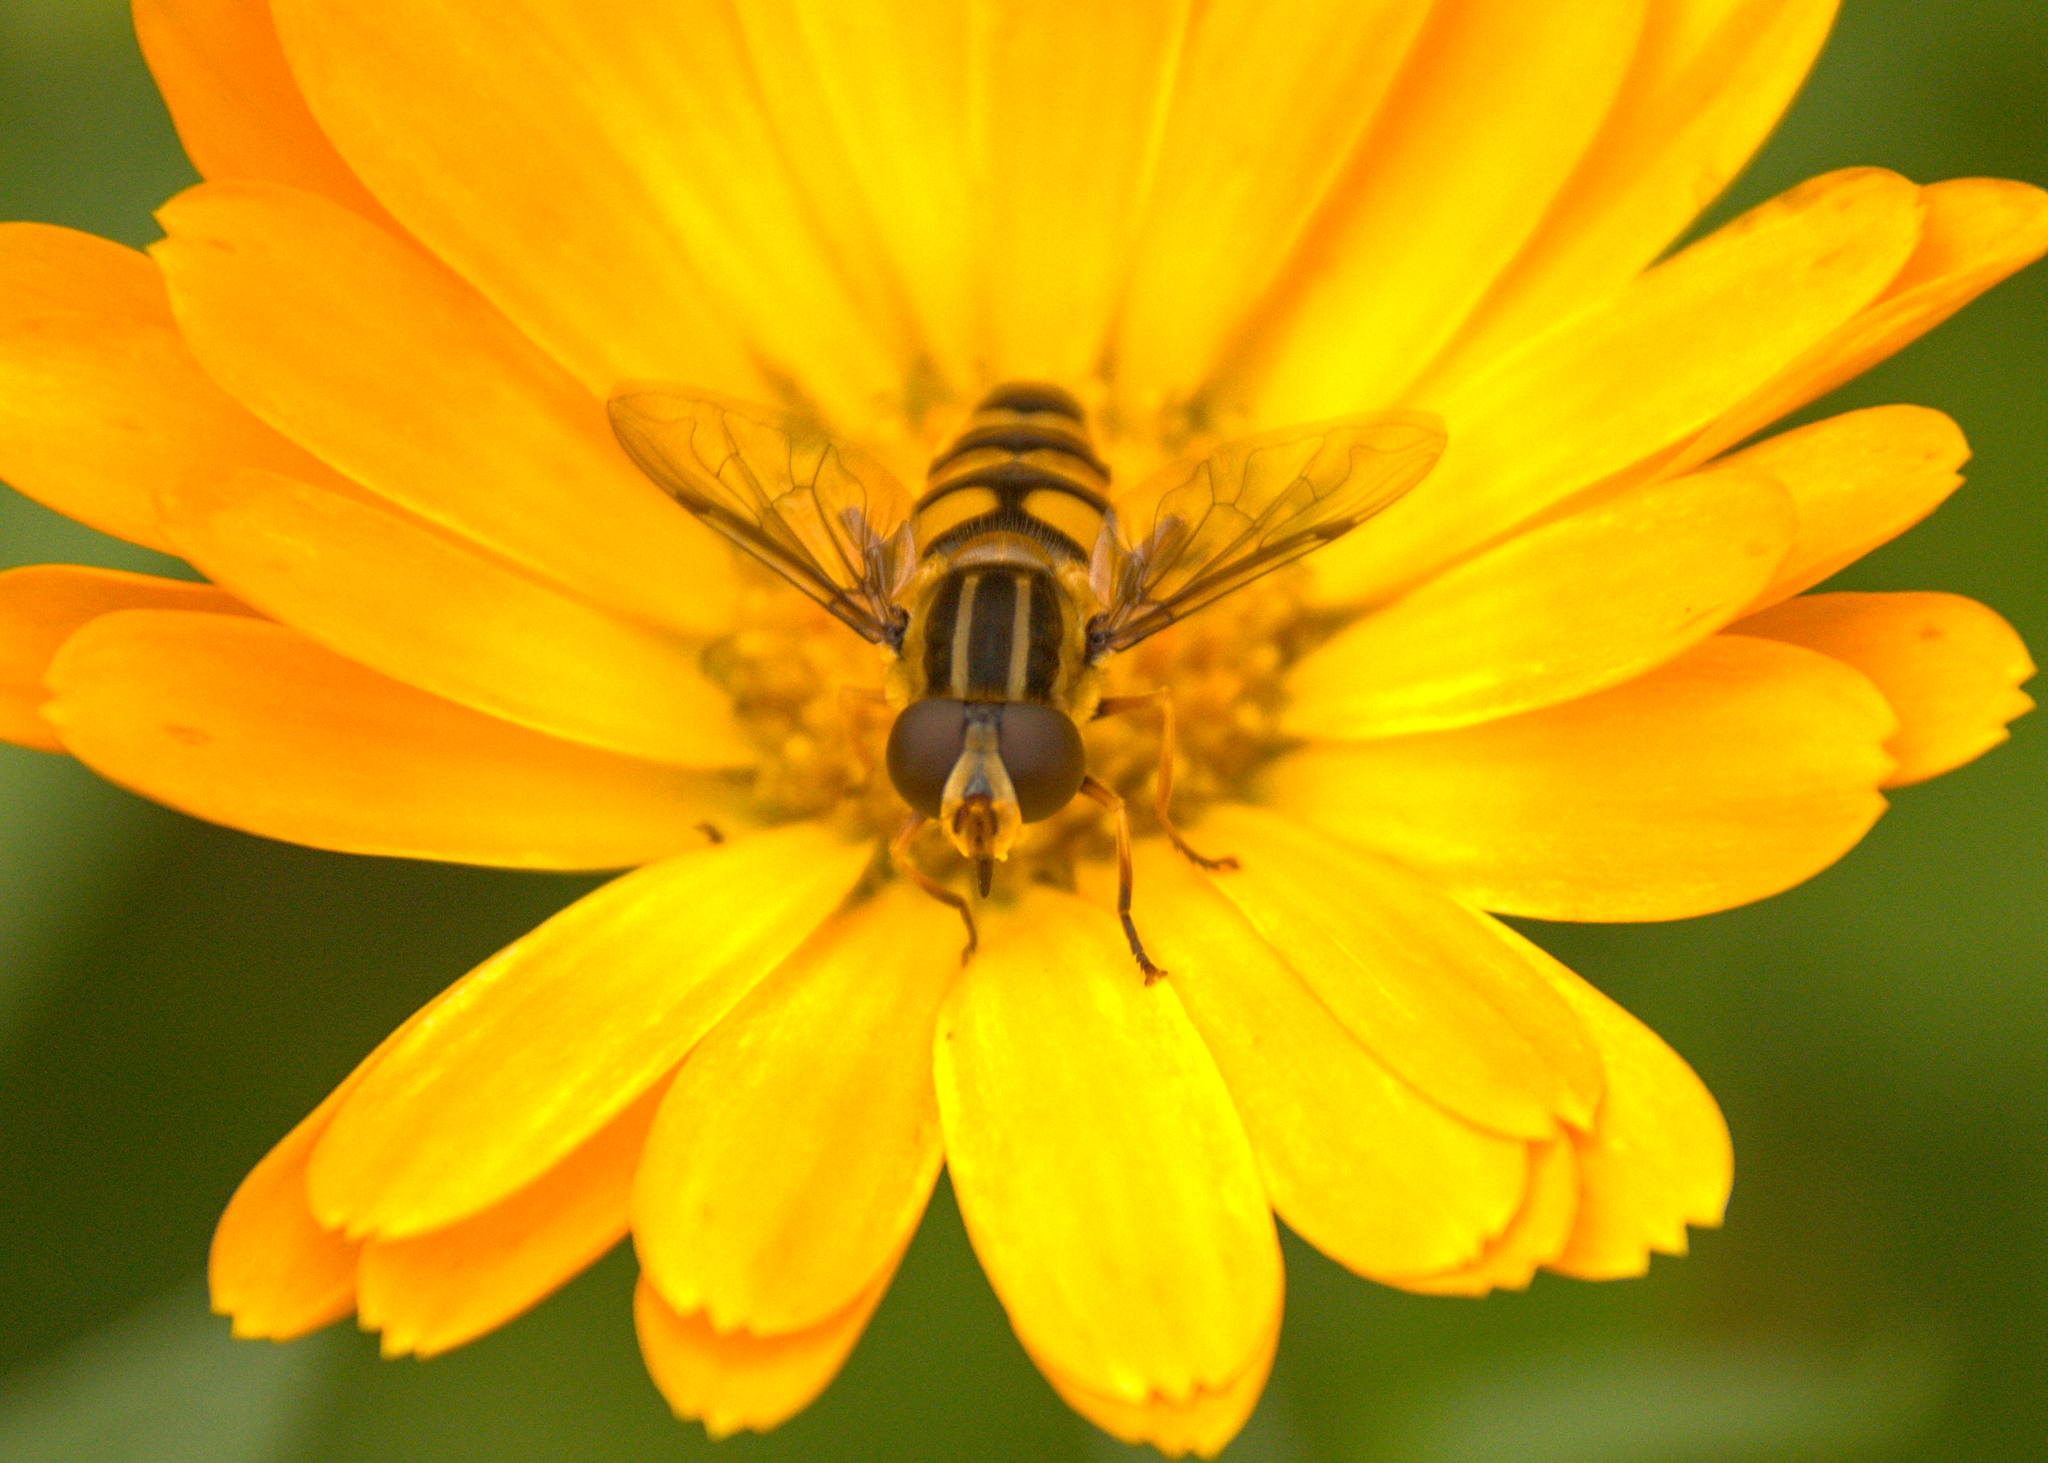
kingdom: Animalia
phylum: Arthropoda
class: Insecta
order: Diptera
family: Syrphidae
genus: Helophilus
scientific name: Helophilus fasciatus
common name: Narrow-headed marsh fly
